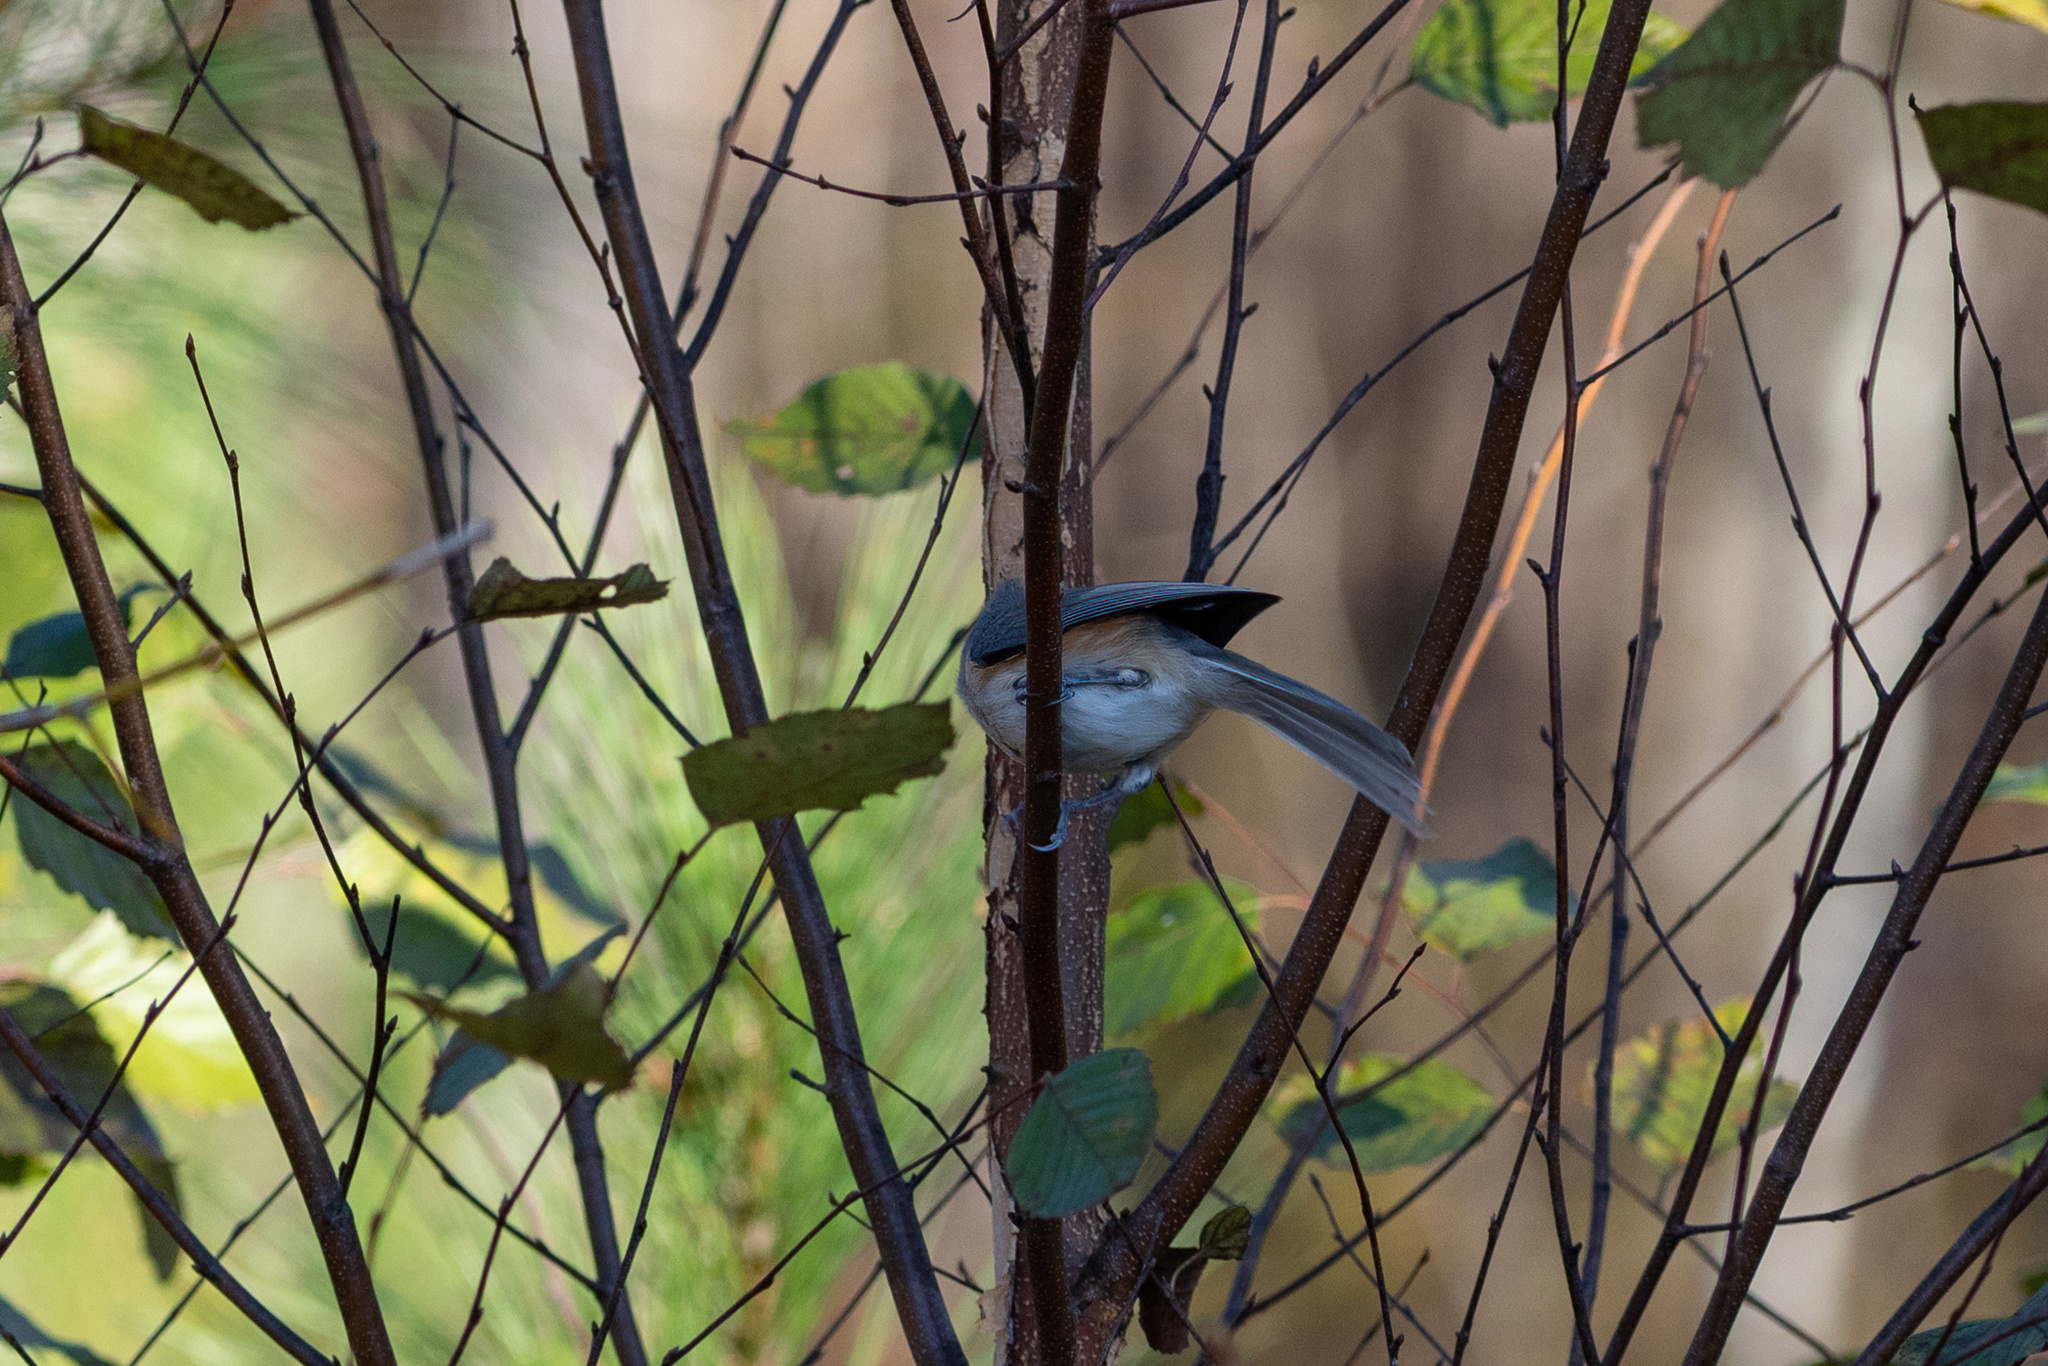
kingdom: Animalia
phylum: Chordata
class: Aves
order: Passeriformes
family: Paridae
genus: Baeolophus
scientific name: Baeolophus bicolor
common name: Tufted titmouse
